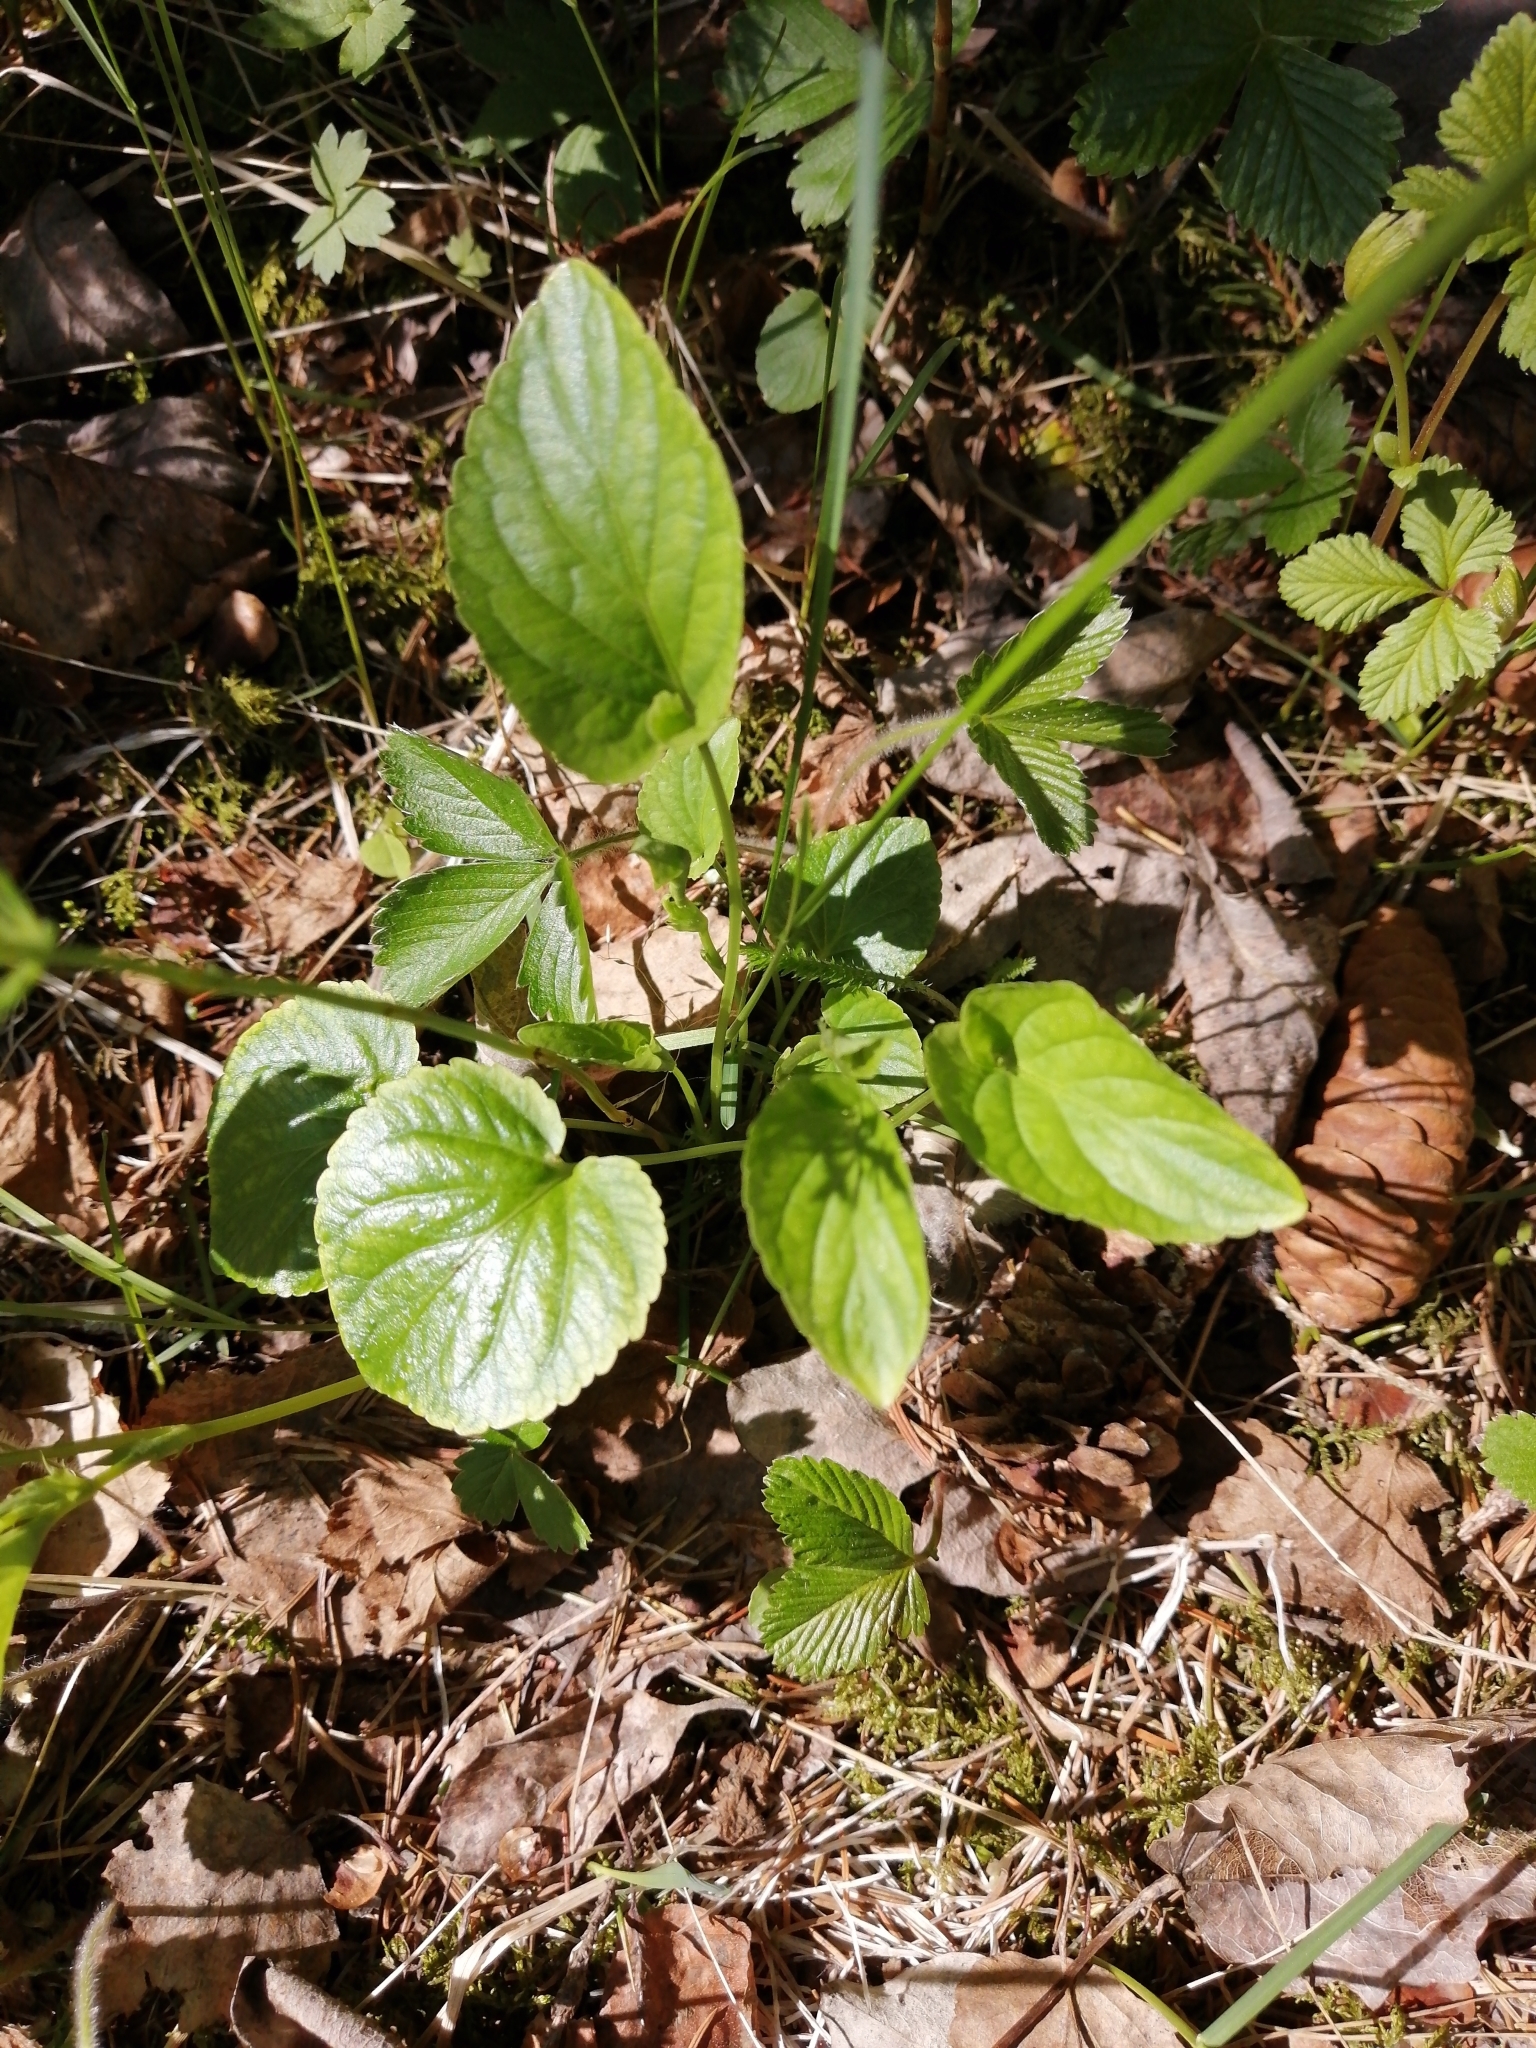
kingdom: Plantae
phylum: Tracheophyta
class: Magnoliopsida
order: Malpighiales
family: Violaceae
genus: Viola
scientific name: Viola epipsila
